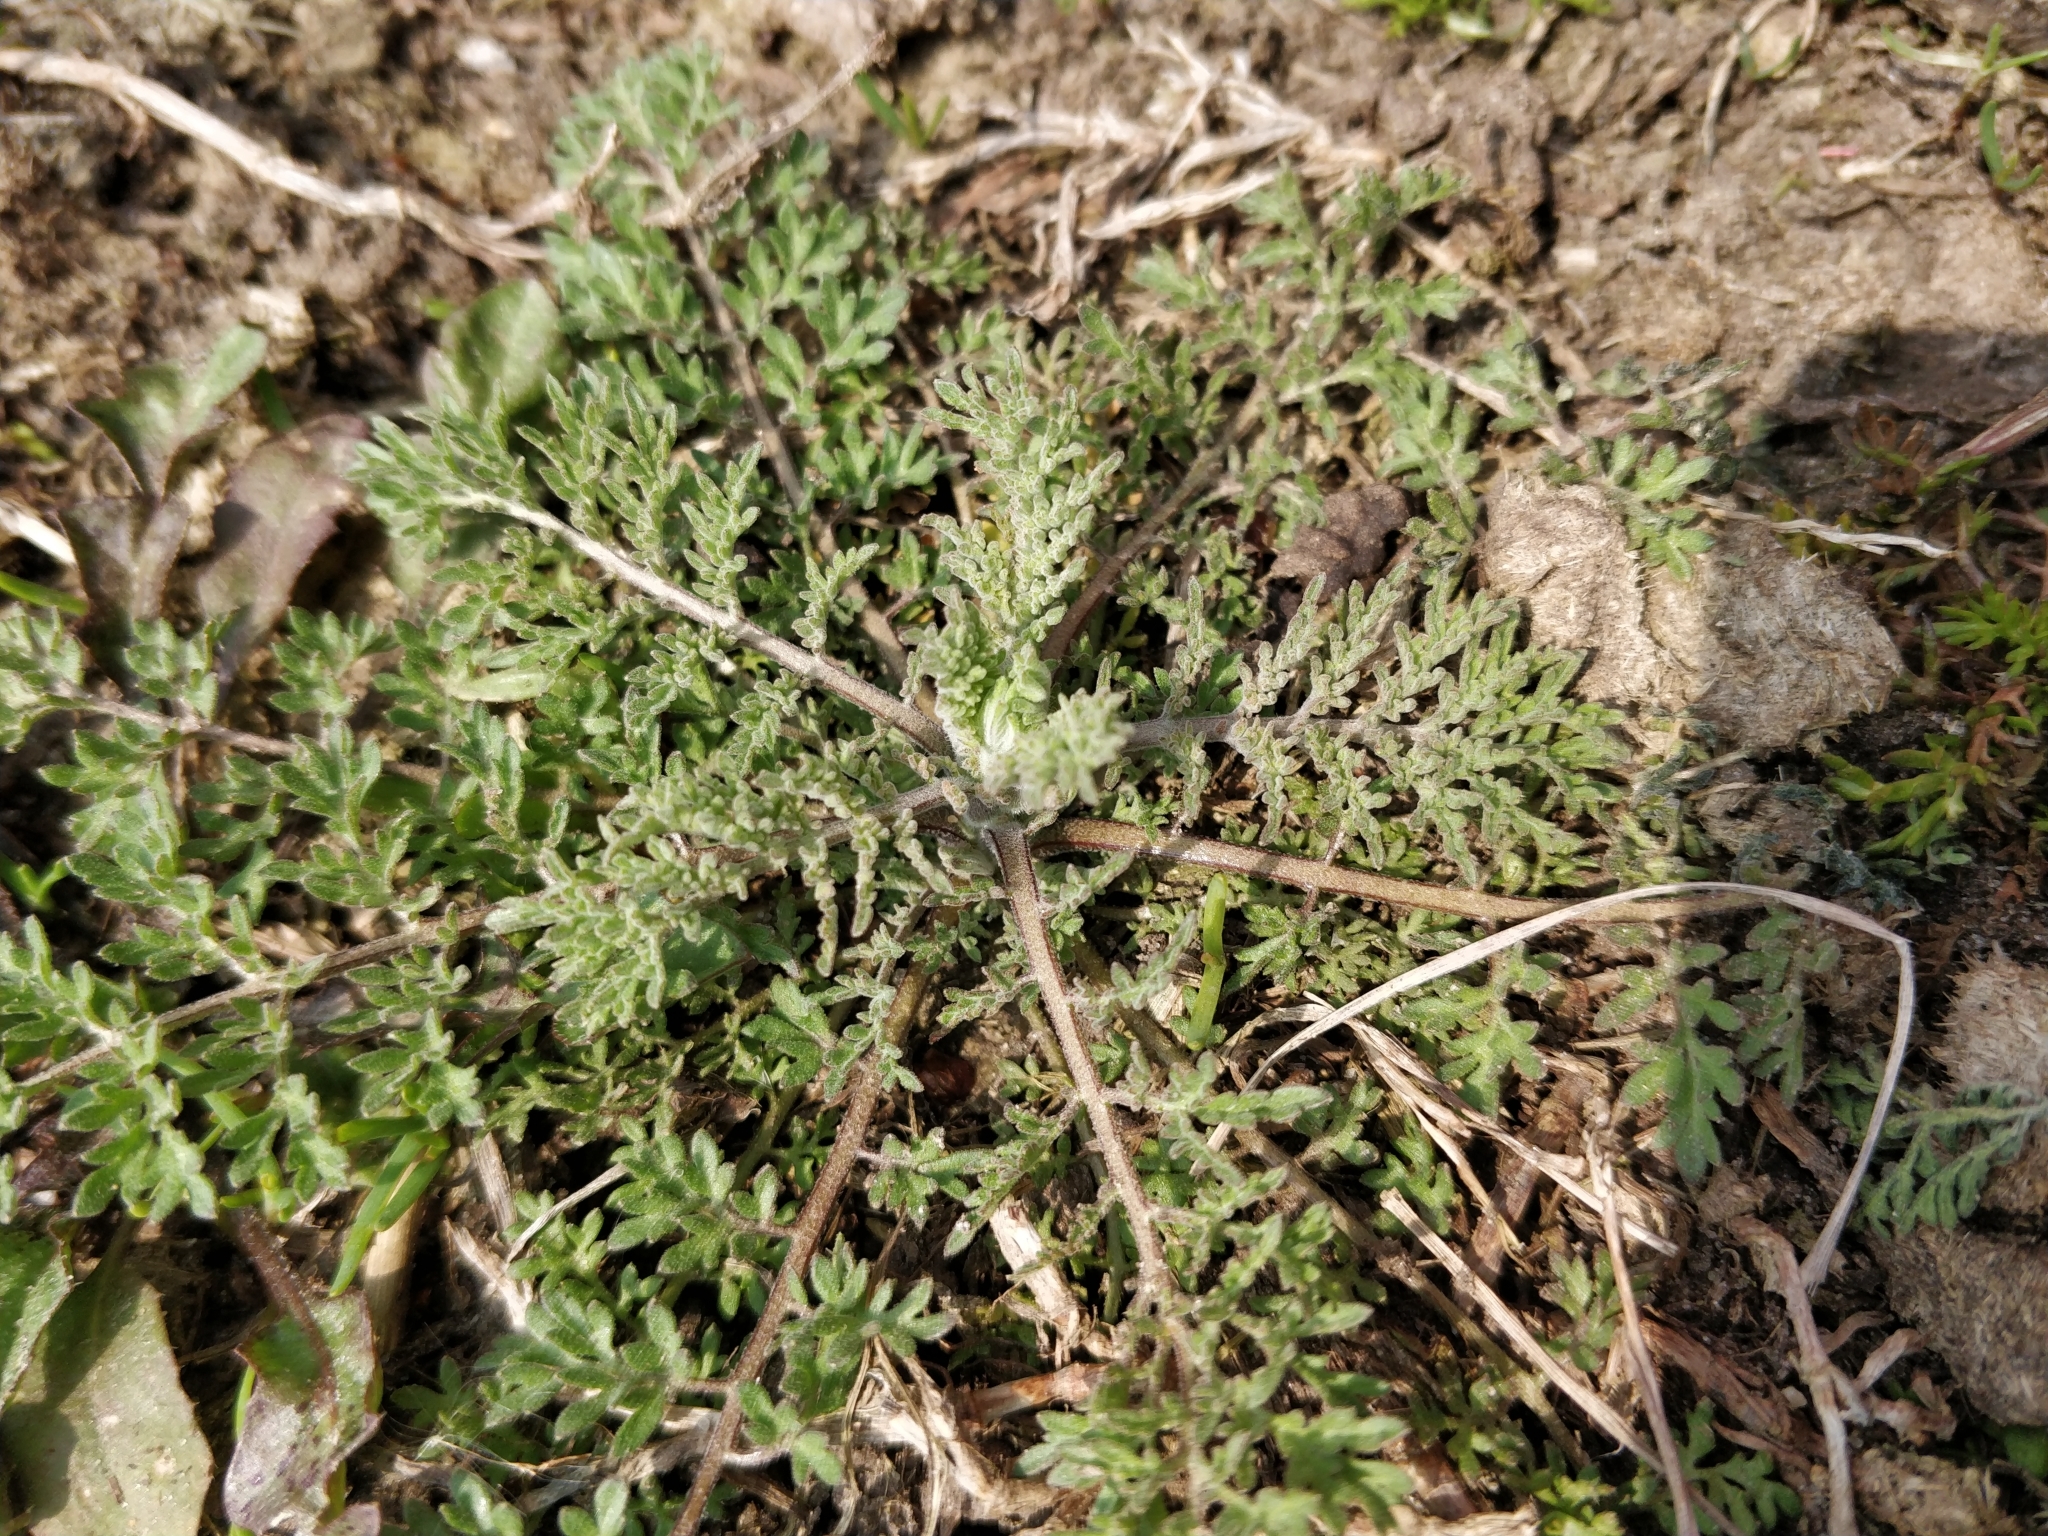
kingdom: Plantae
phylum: Tracheophyta
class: Magnoliopsida
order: Brassicales
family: Brassicaceae
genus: Descurainia
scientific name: Descurainia sophia
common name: Flixweed
